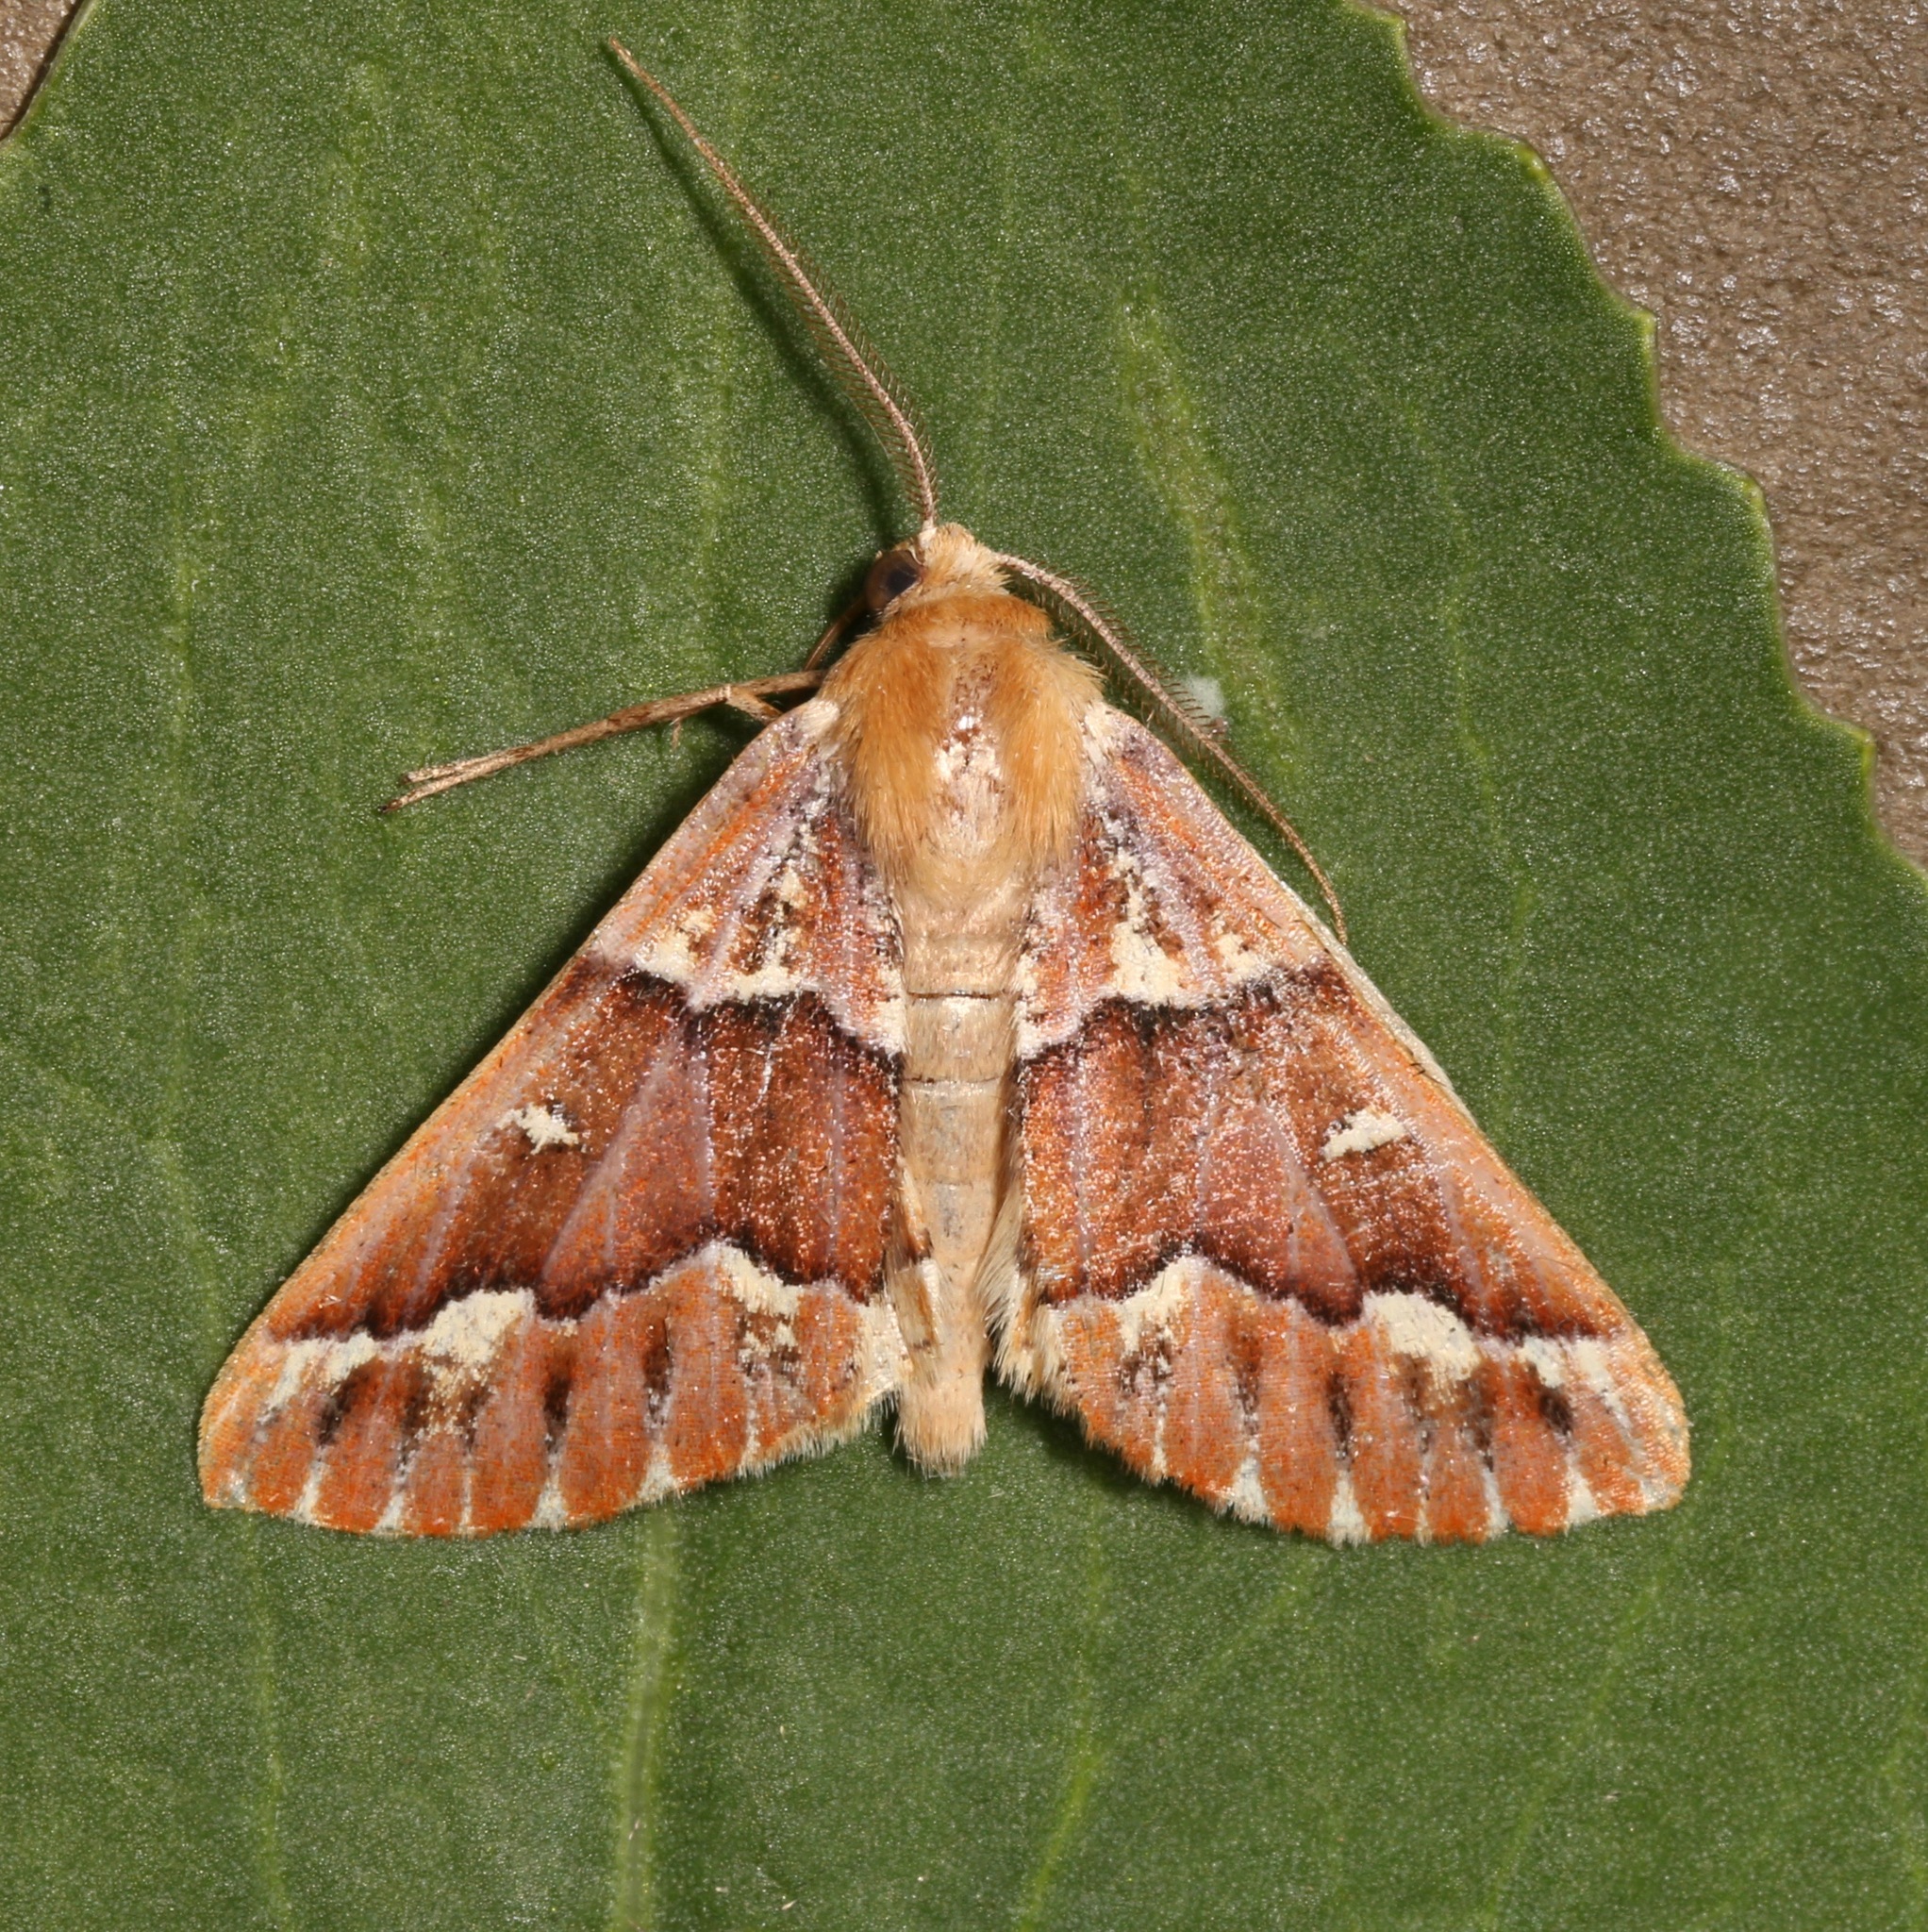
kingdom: Animalia
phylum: Arthropoda
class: Insecta
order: Lepidoptera
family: Geometridae
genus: Caripeta
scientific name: Caripeta aequaliaria
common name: Red girdle moth
